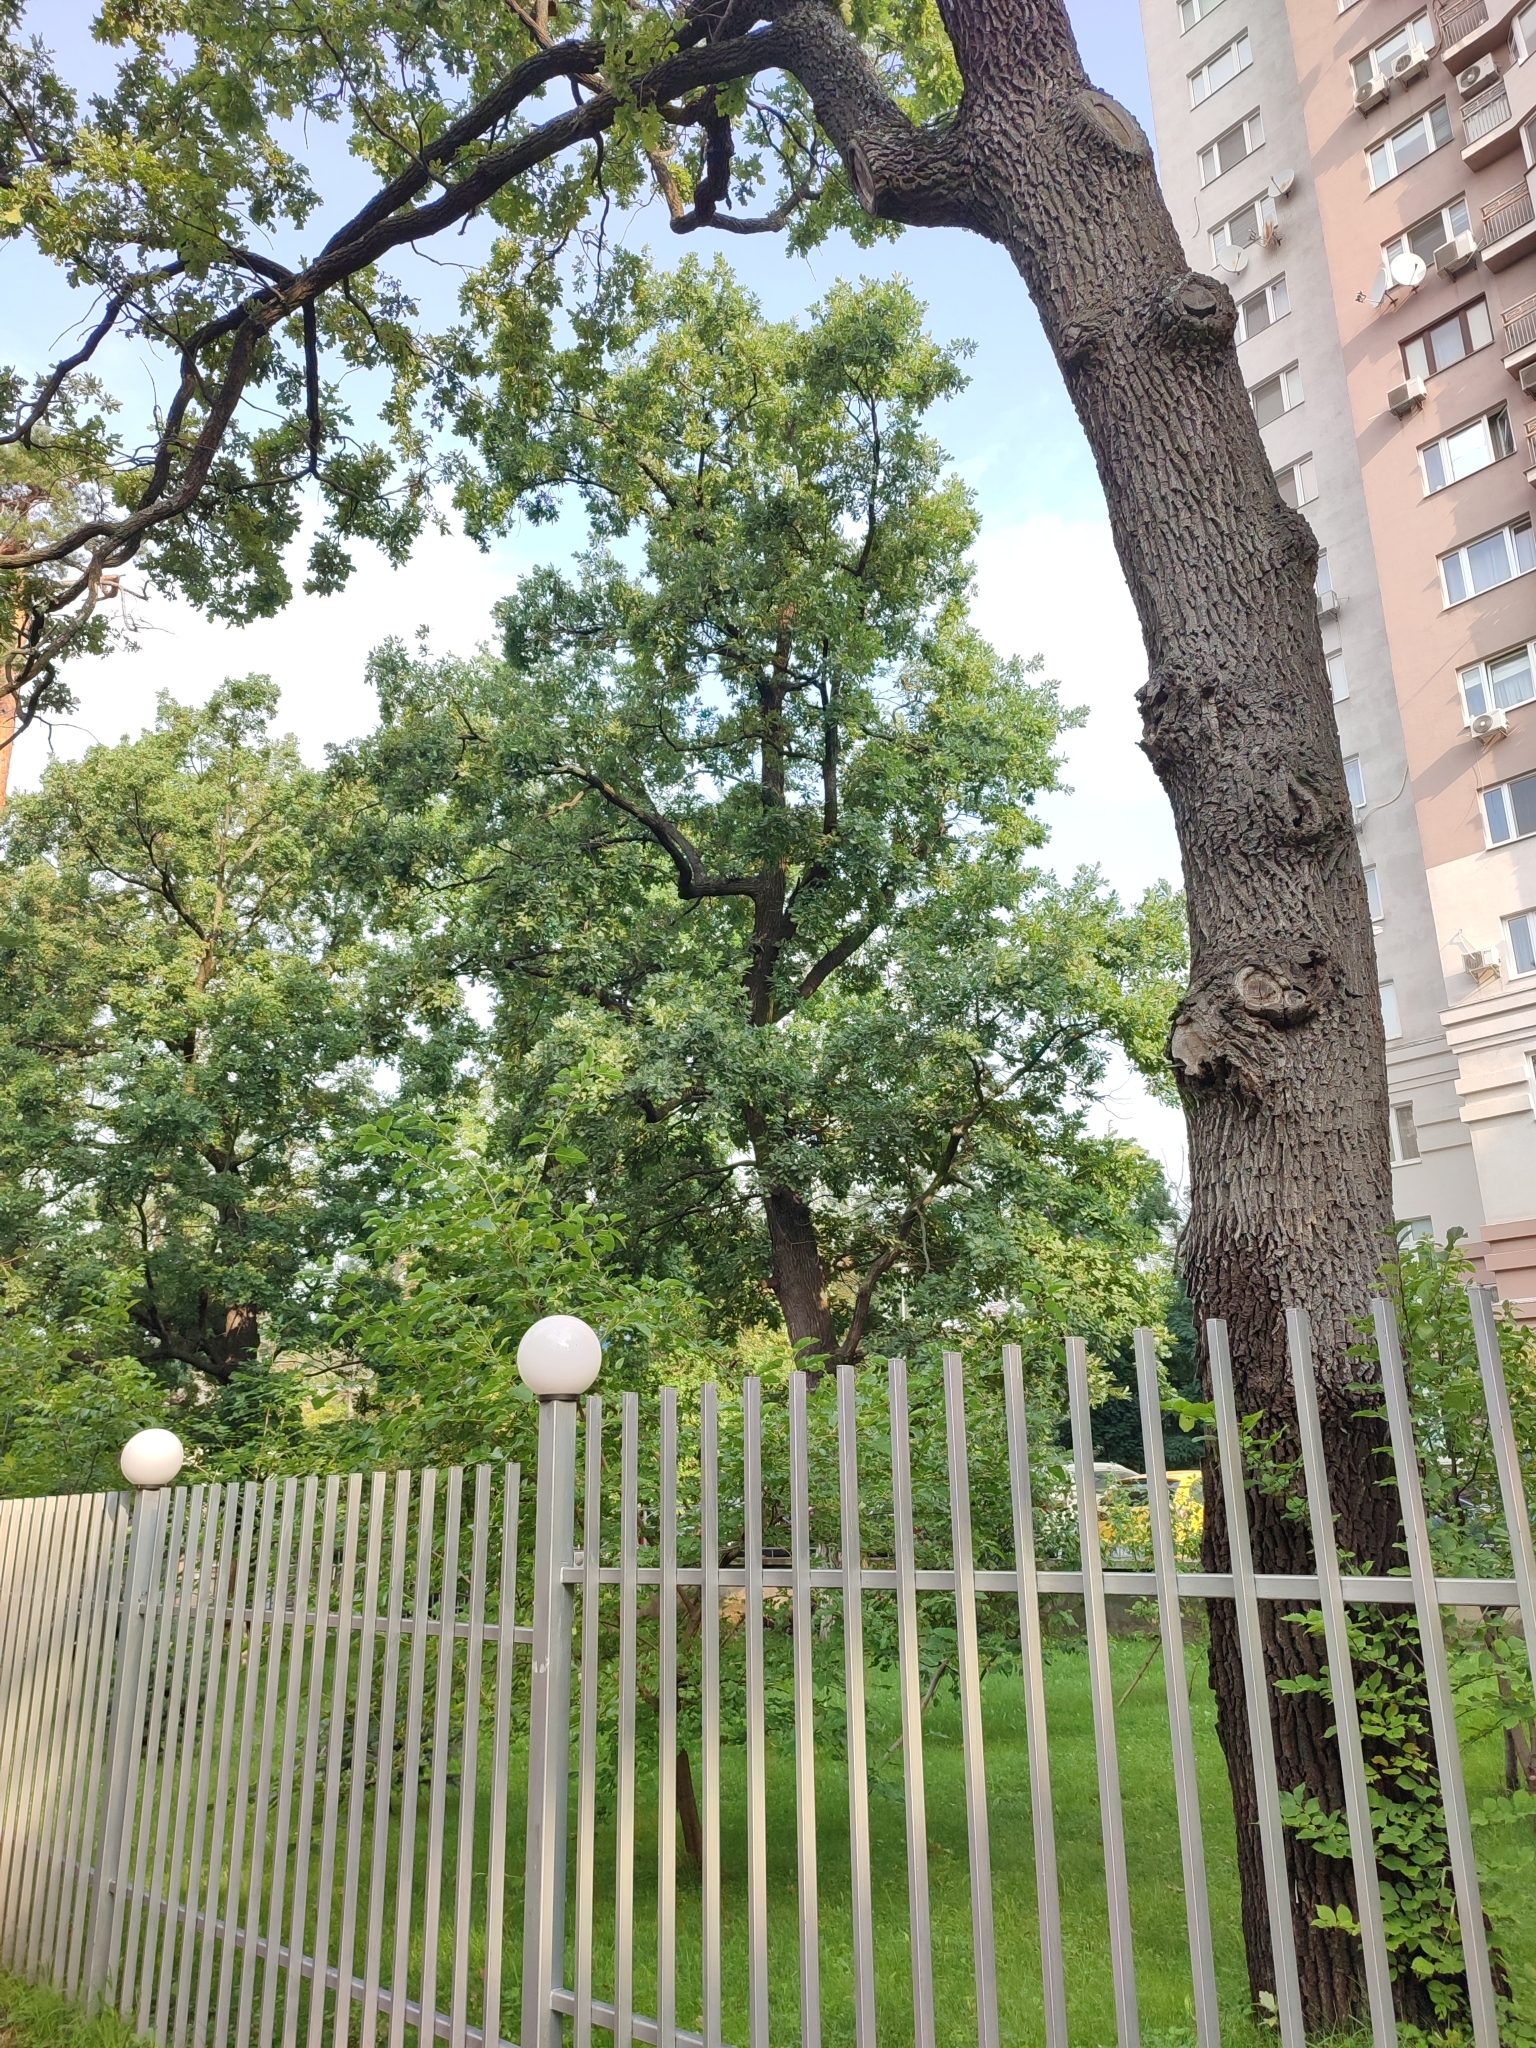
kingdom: Plantae
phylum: Tracheophyta
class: Magnoliopsida
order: Fagales
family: Fagaceae
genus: Quercus
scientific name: Quercus robur
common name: Pedunculate oak
